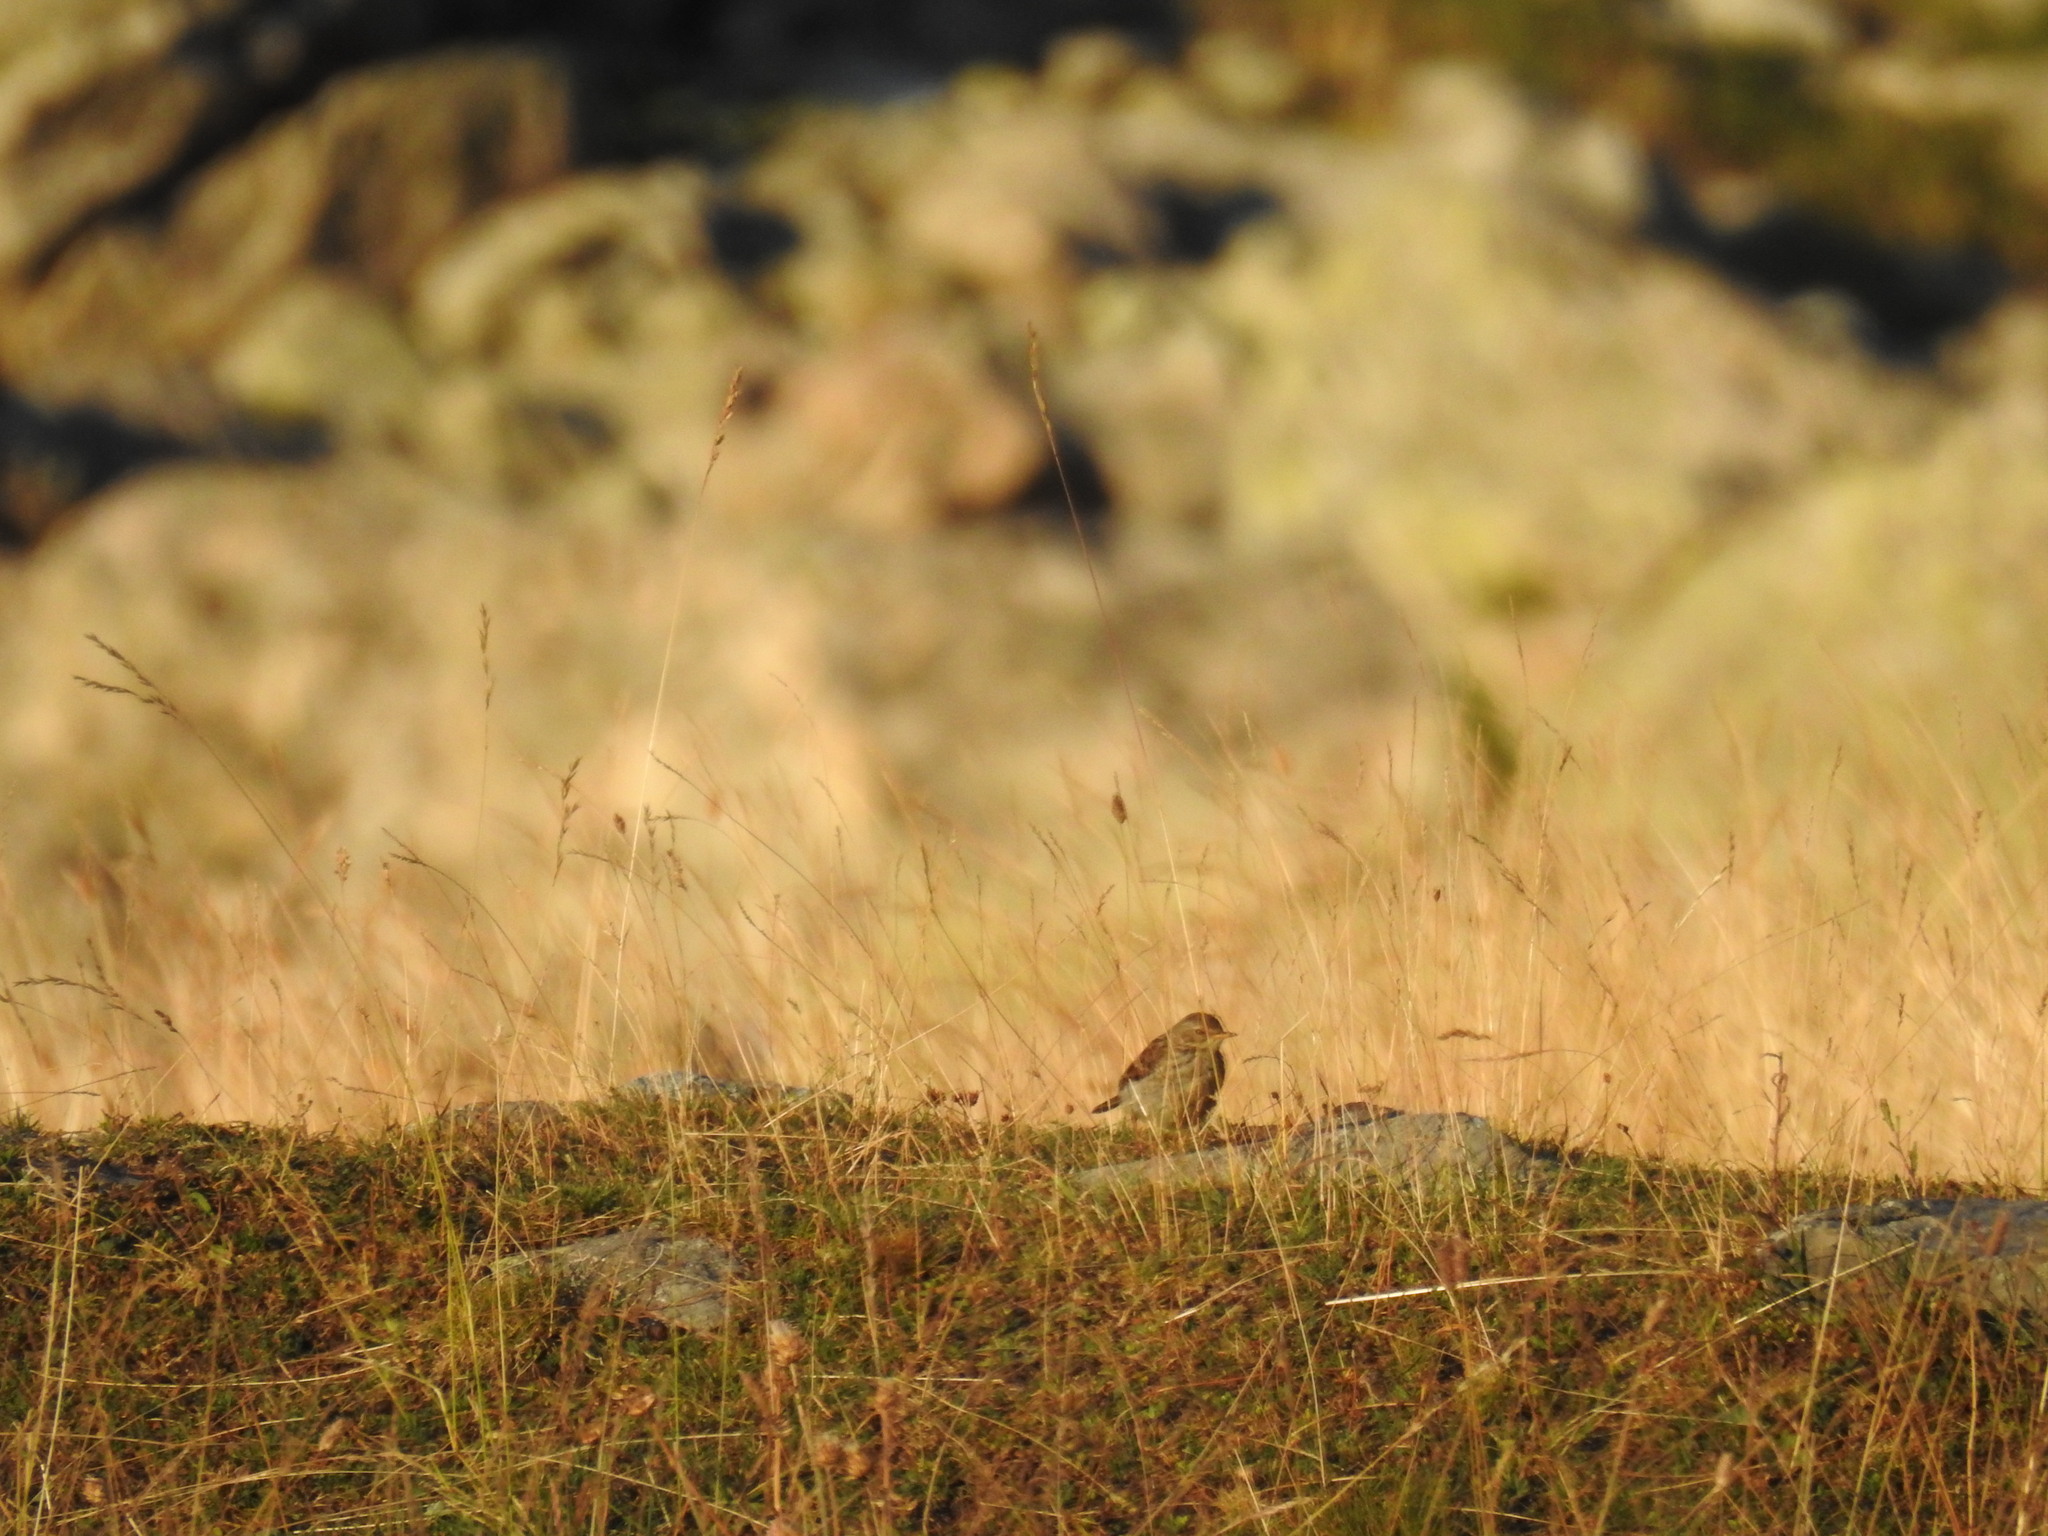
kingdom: Animalia
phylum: Chordata
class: Aves
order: Passeriformes
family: Motacillidae
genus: Anthus
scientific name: Anthus spinoletta
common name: Water pipit
